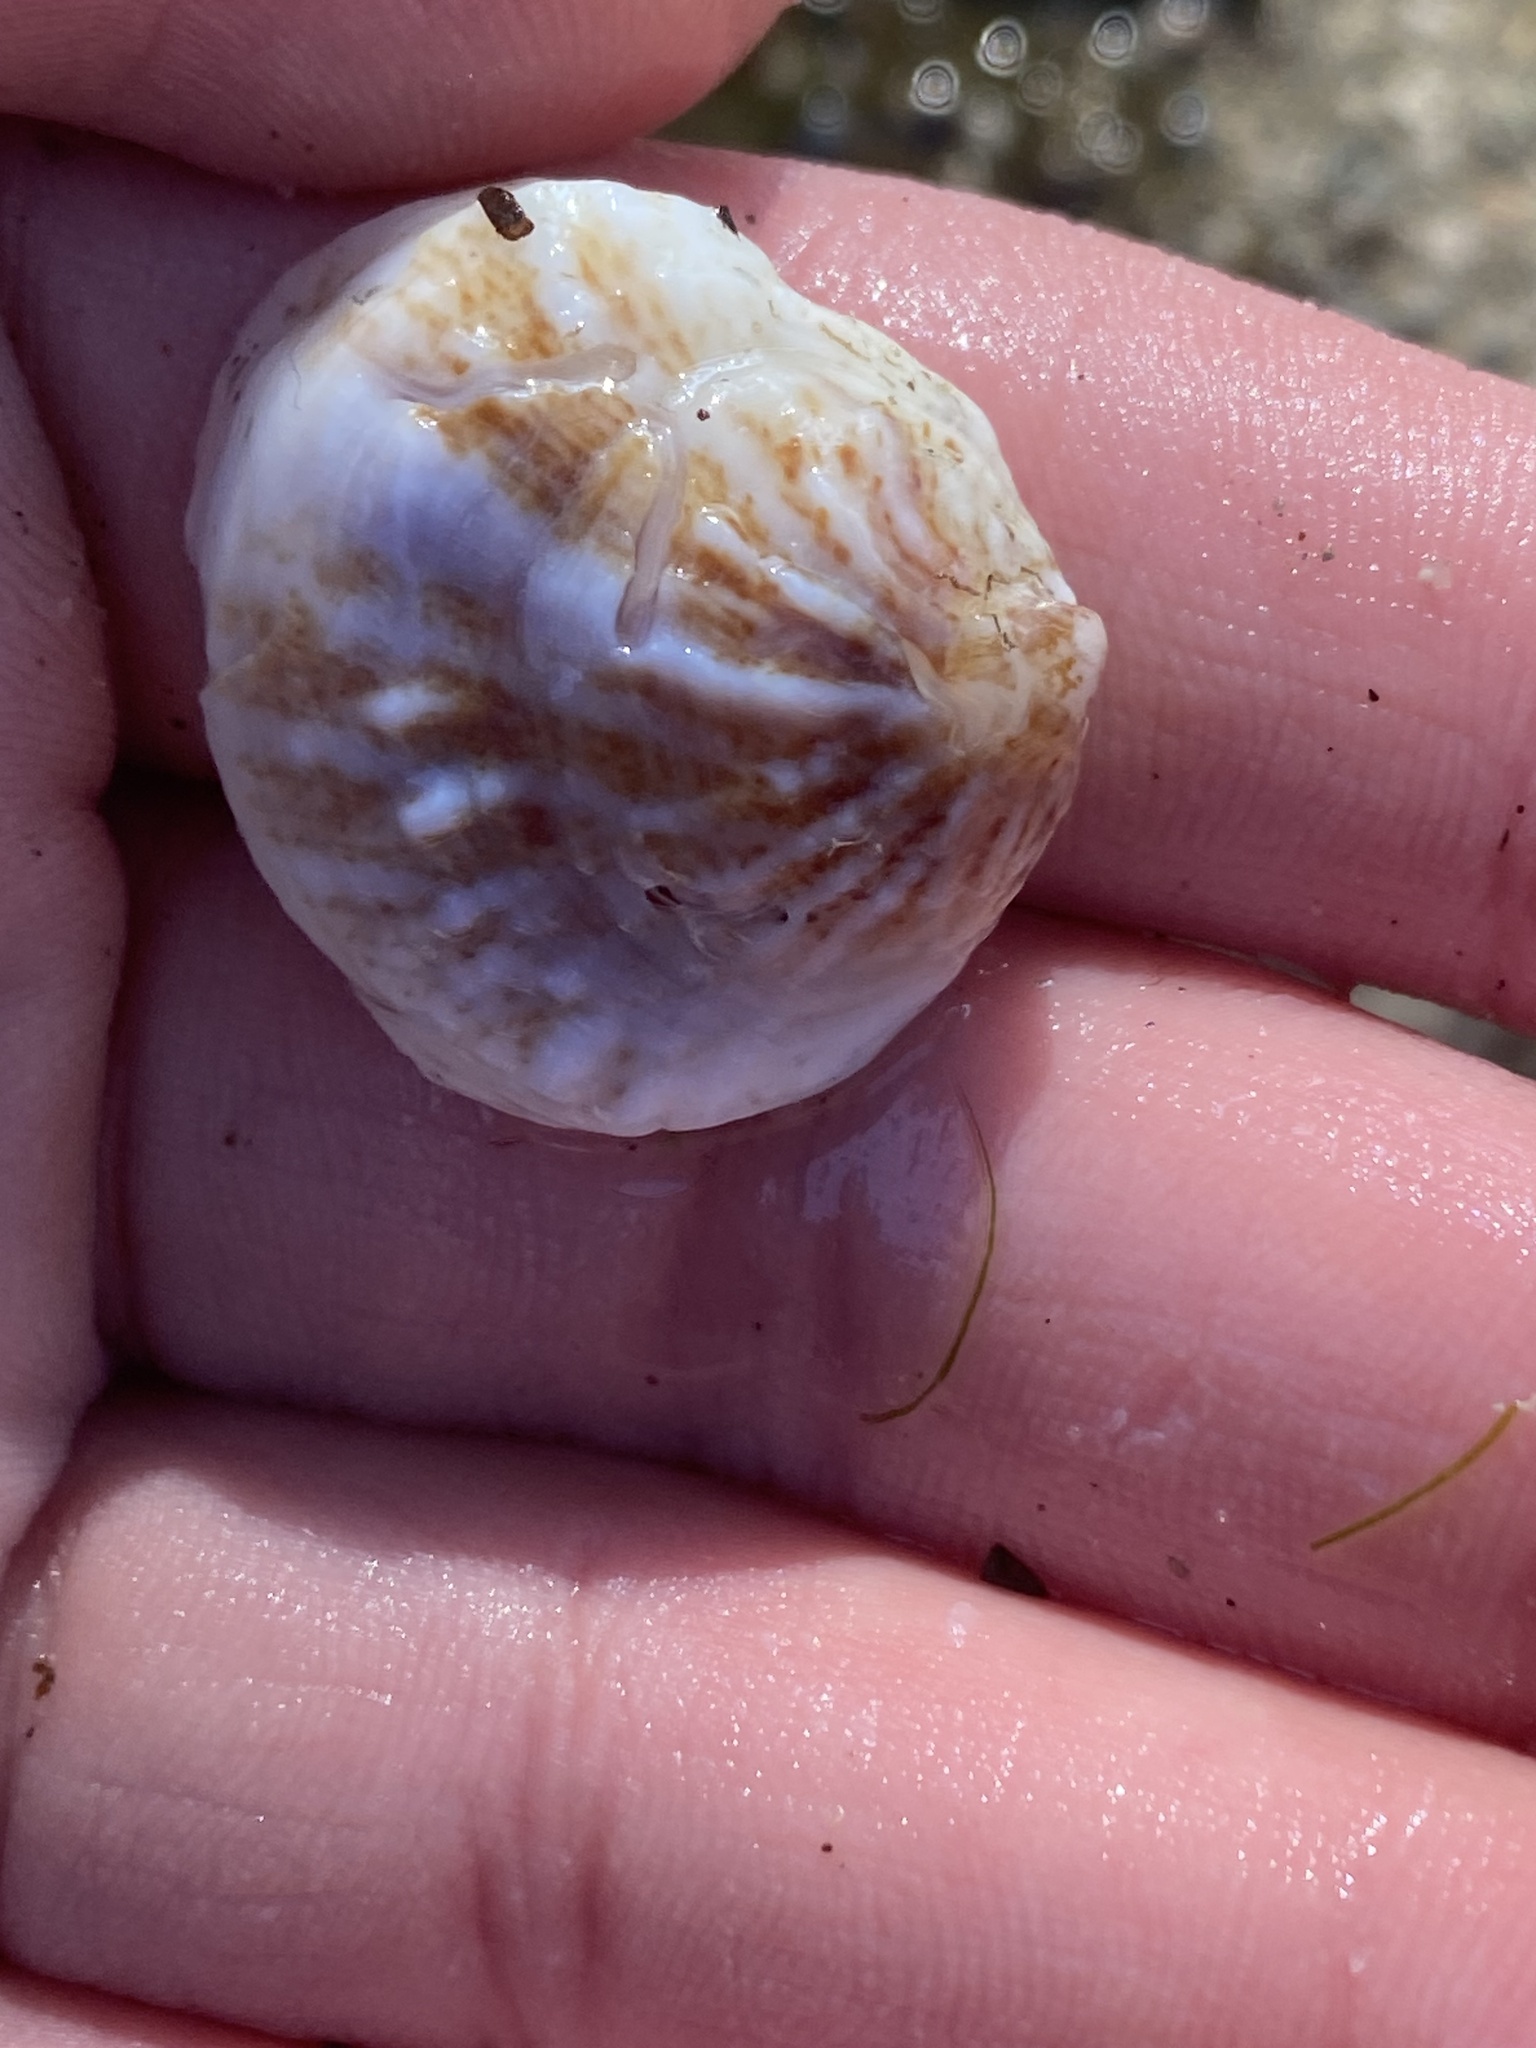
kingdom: Animalia
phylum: Mollusca
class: Gastropoda
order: Littorinimorpha
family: Calyptraeidae
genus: Crepipatella
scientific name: Crepipatella lingulata
